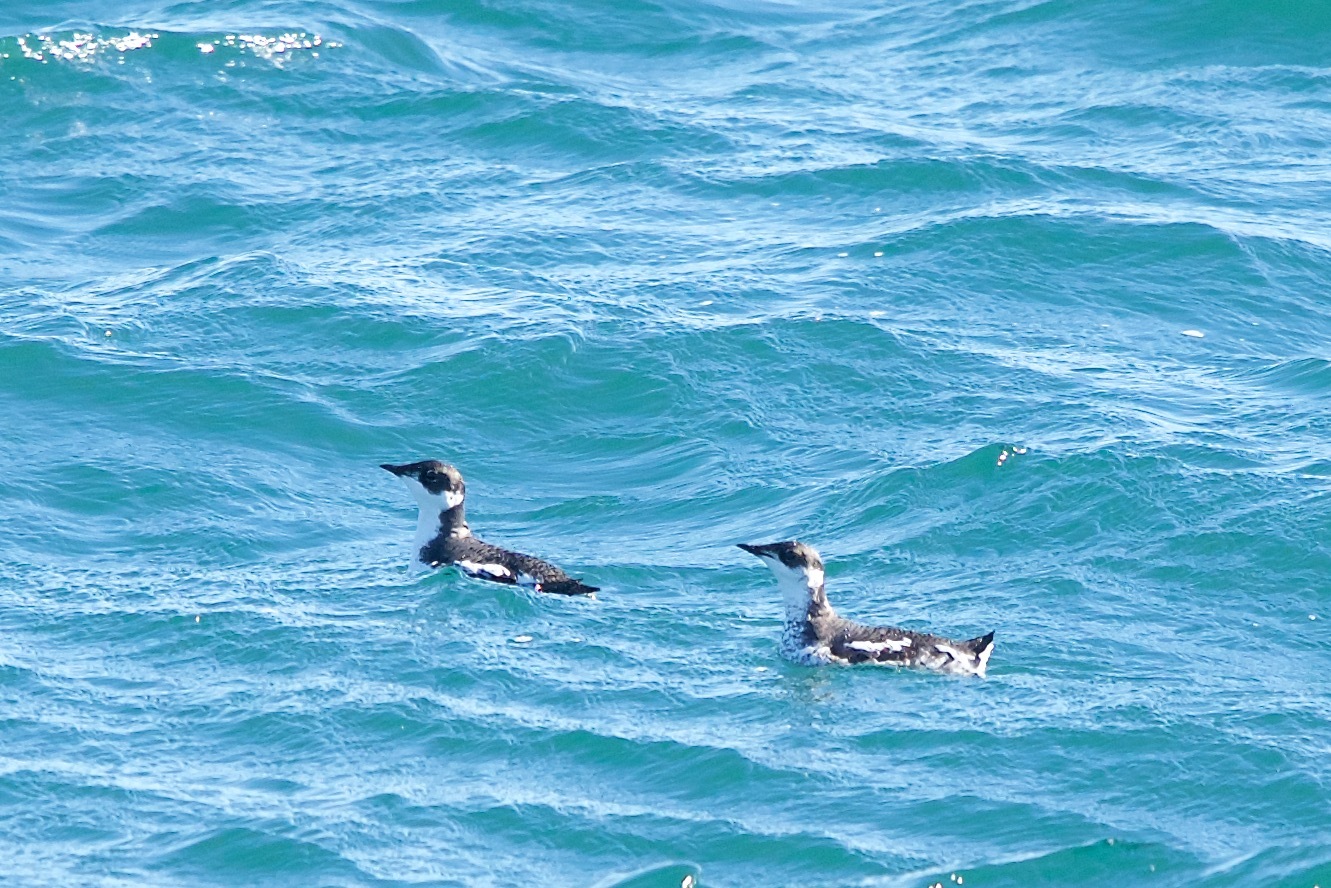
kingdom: Animalia
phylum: Chordata
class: Aves
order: Charadriiformes
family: Alcidae
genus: Brachyramphus
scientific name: Brachyramphus marmoratus
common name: Marbled murrelet
